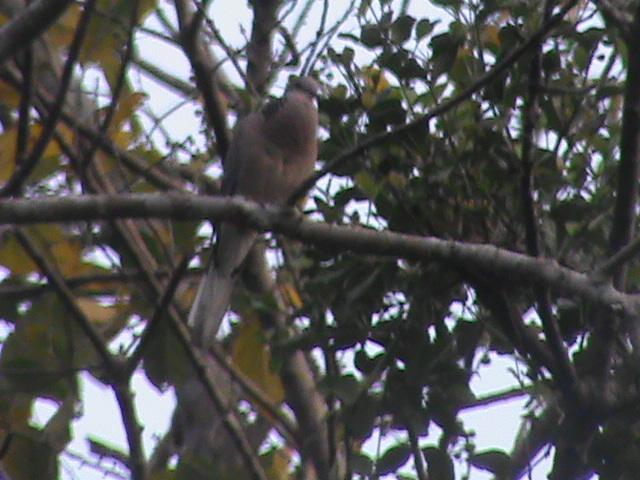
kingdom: Animalia
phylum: Chordata
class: Aves
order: Columbiformes
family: Columbidae
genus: Spilopelia
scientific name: Spilopelia chinensis
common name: Spotted dove
